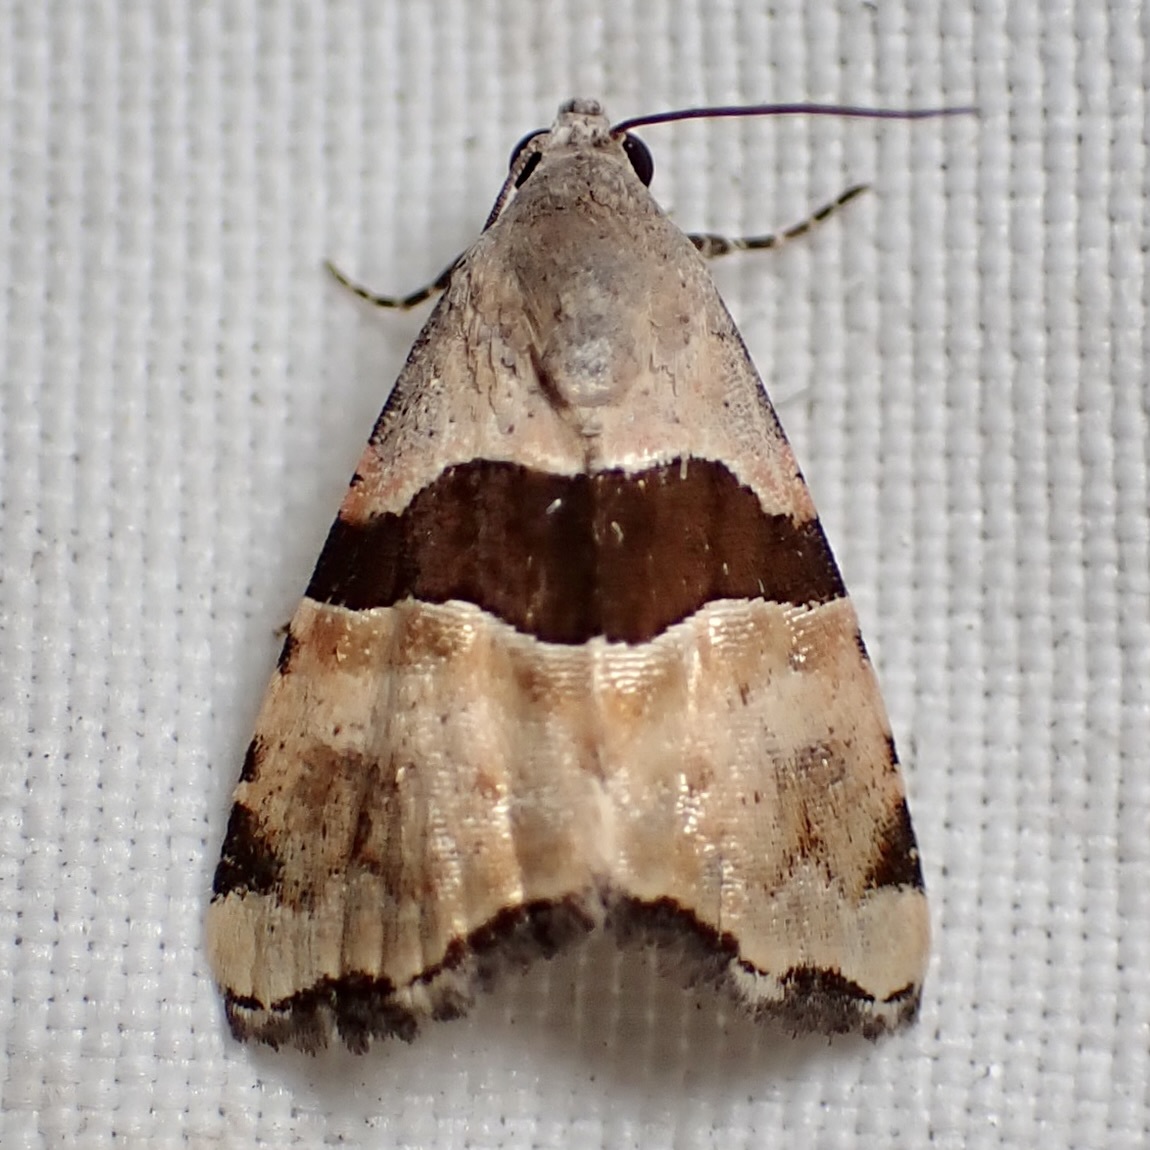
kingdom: Animalia
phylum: Arthropoda
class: Insecta
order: Lepidoptera
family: Noctuidae
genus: Cobubatha
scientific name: Cobubatha lixiva
